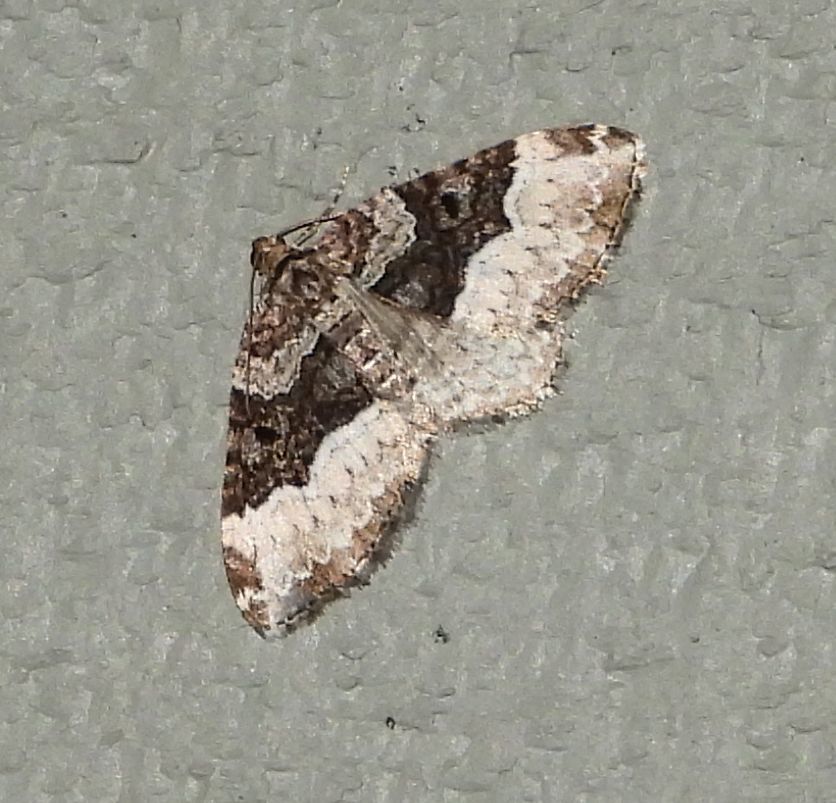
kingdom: Animalia
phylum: Arthropoda
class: Insecta
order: Lepidoptera
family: Geometridae
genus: Euphyia
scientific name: Euphyia intermediata
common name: Sharp-angled carpet
